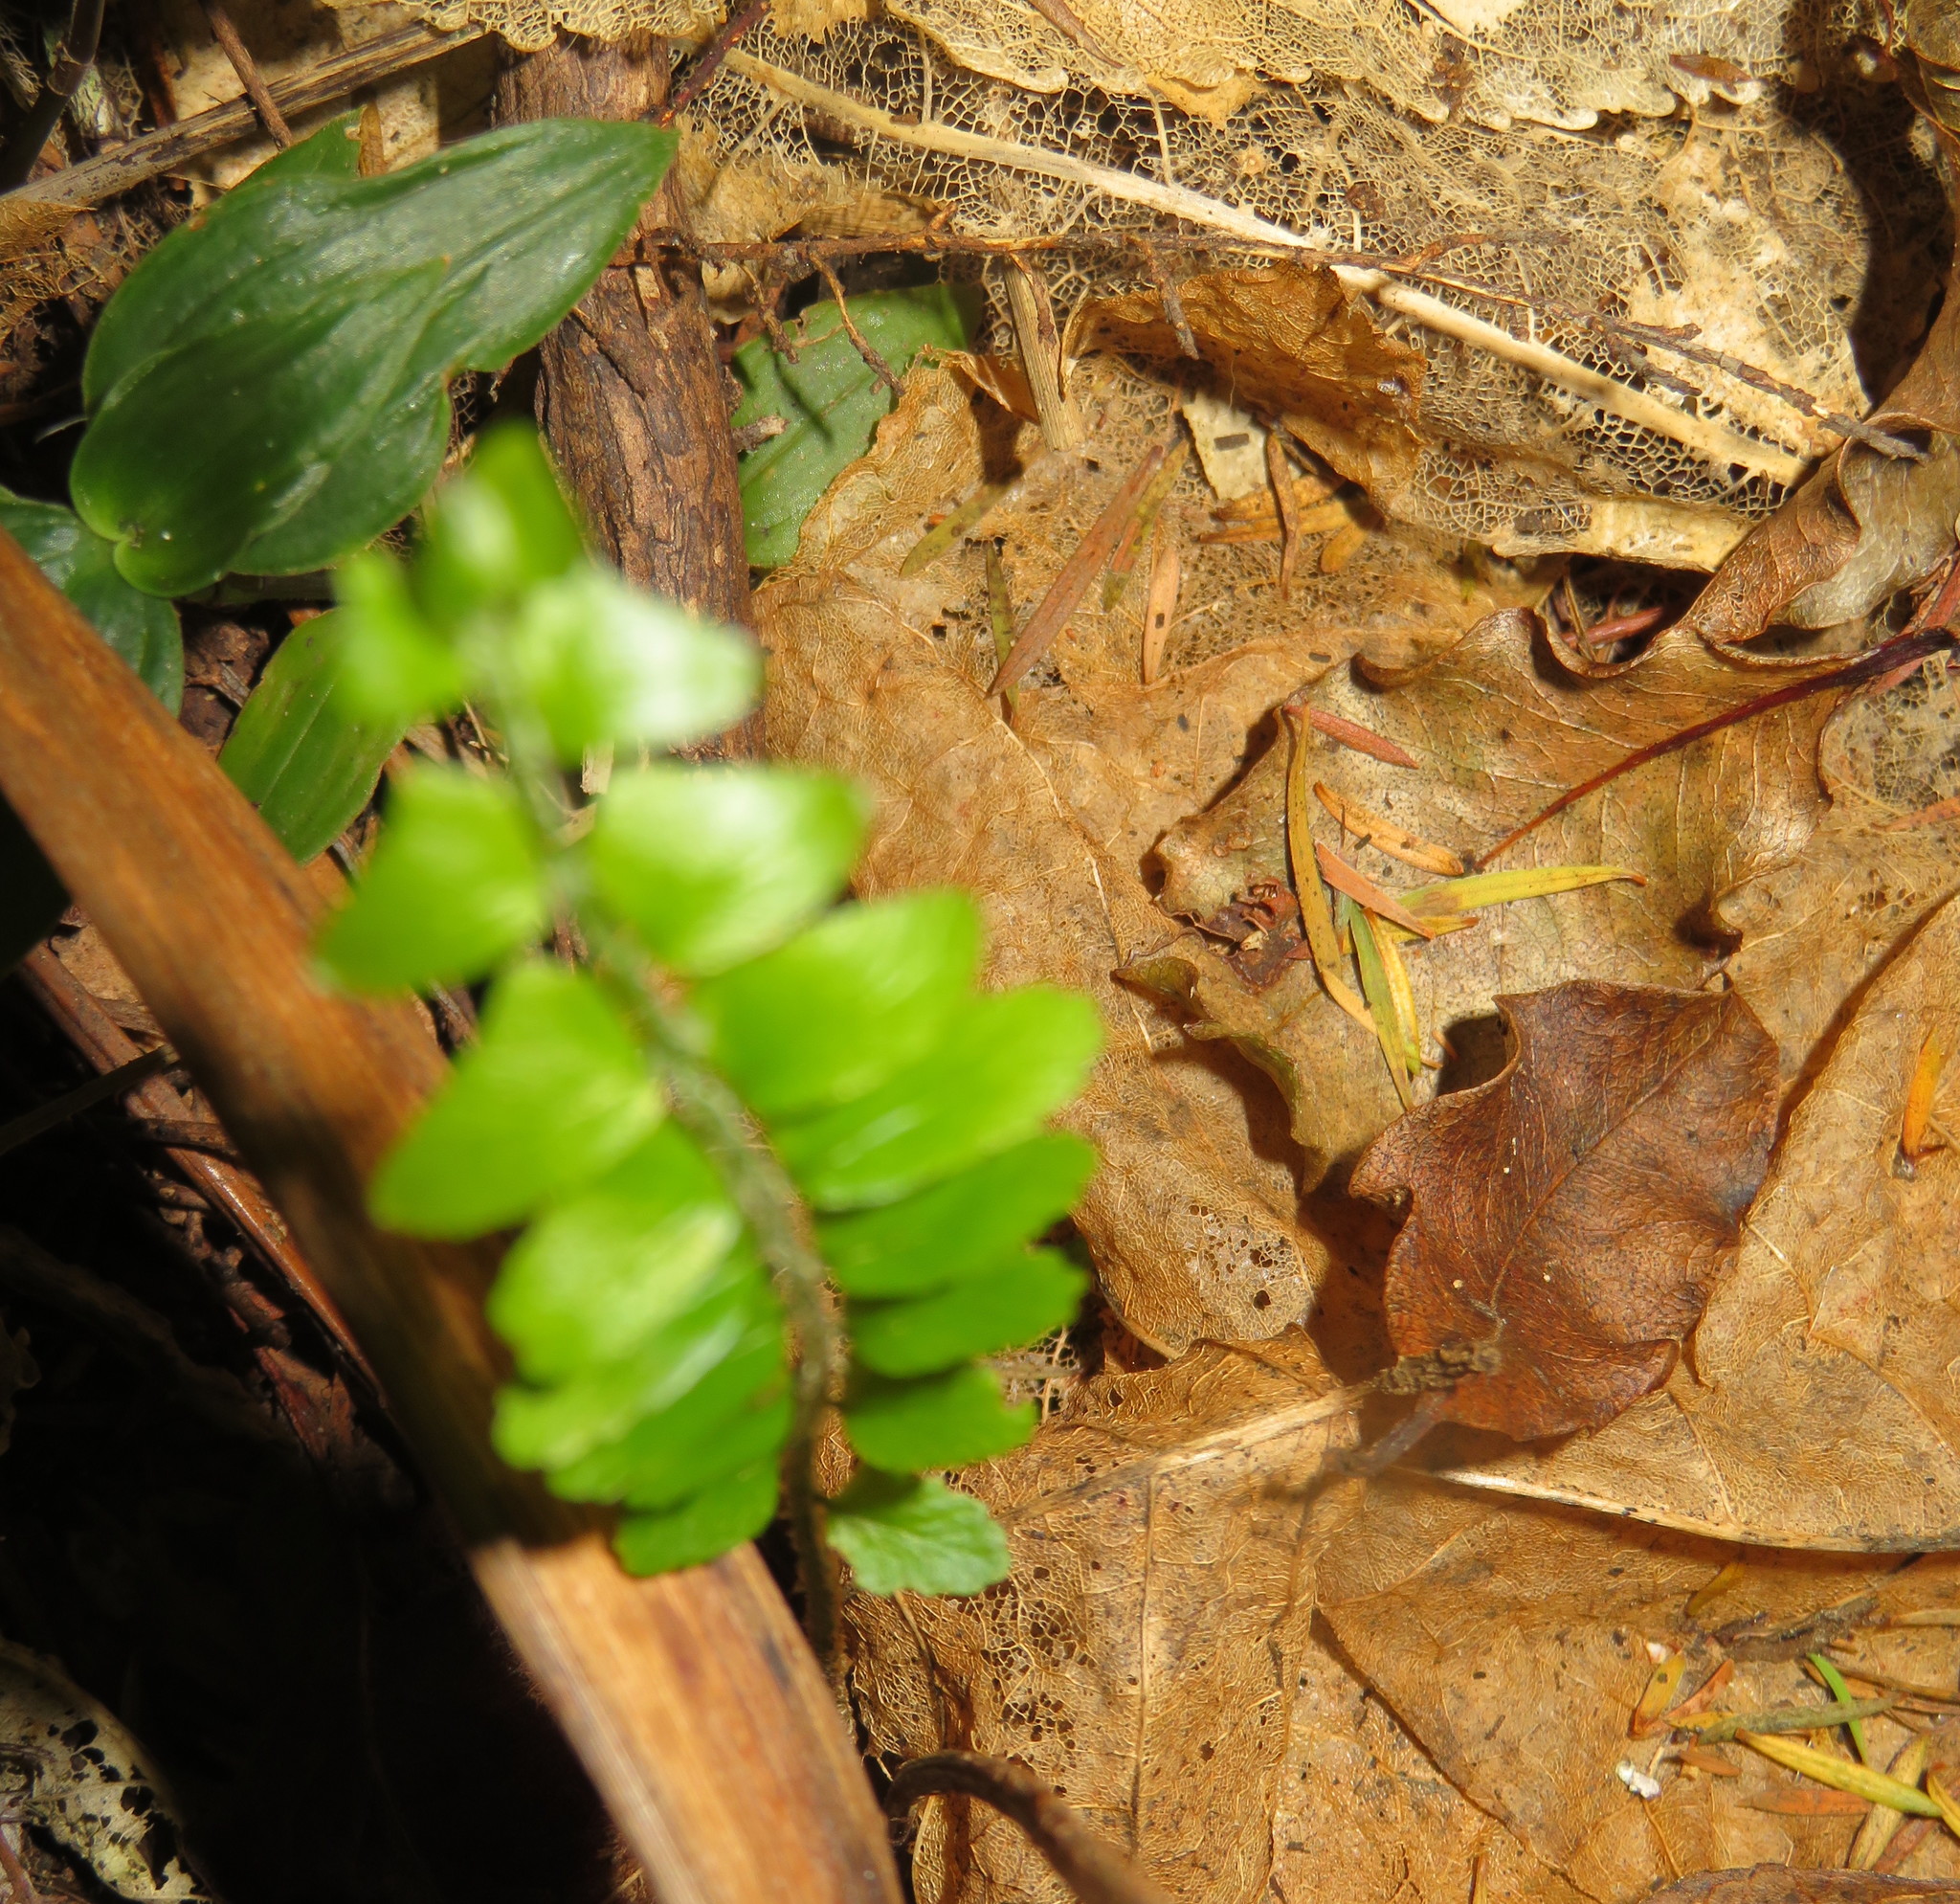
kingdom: Plantae
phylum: Tracheophyta
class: Polypodiopsida
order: Polypodiales
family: Nephrolepidaceae
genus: Nephrolepis
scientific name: Nephrolepis cordifolia
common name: Narrow swordfern
